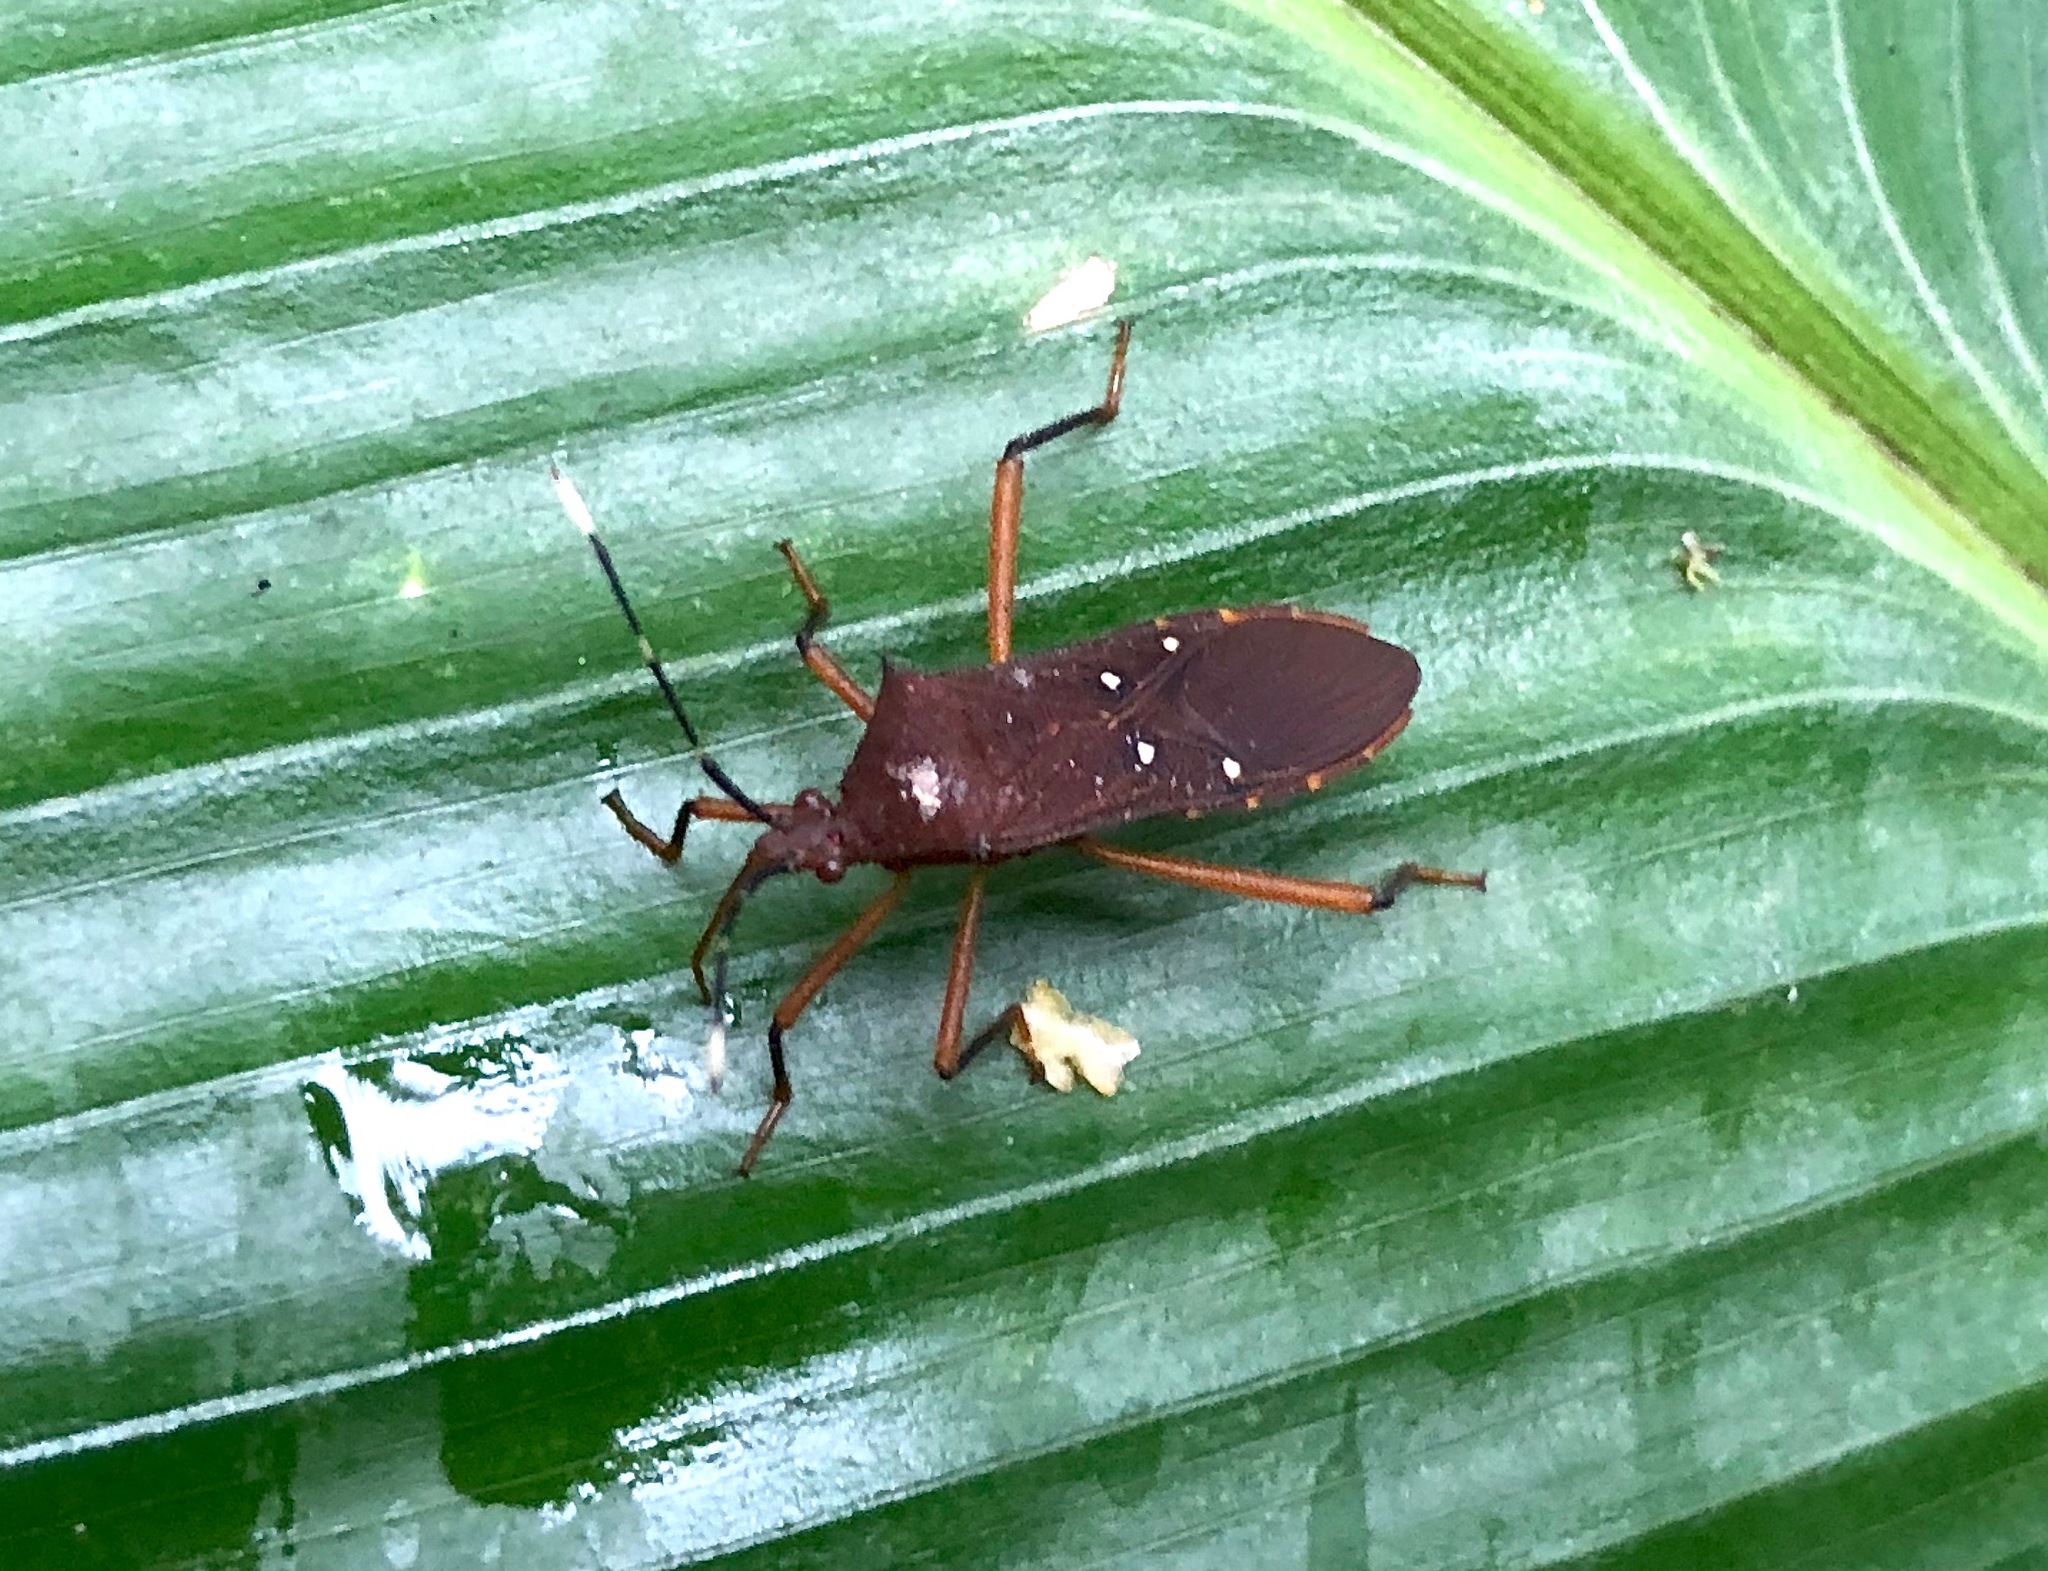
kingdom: Animalia
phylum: Arthropoda
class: Insecta
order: Hemiptera
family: Coreidae
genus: Leptoscelis
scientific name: Leptoscelis quadrisignatus
